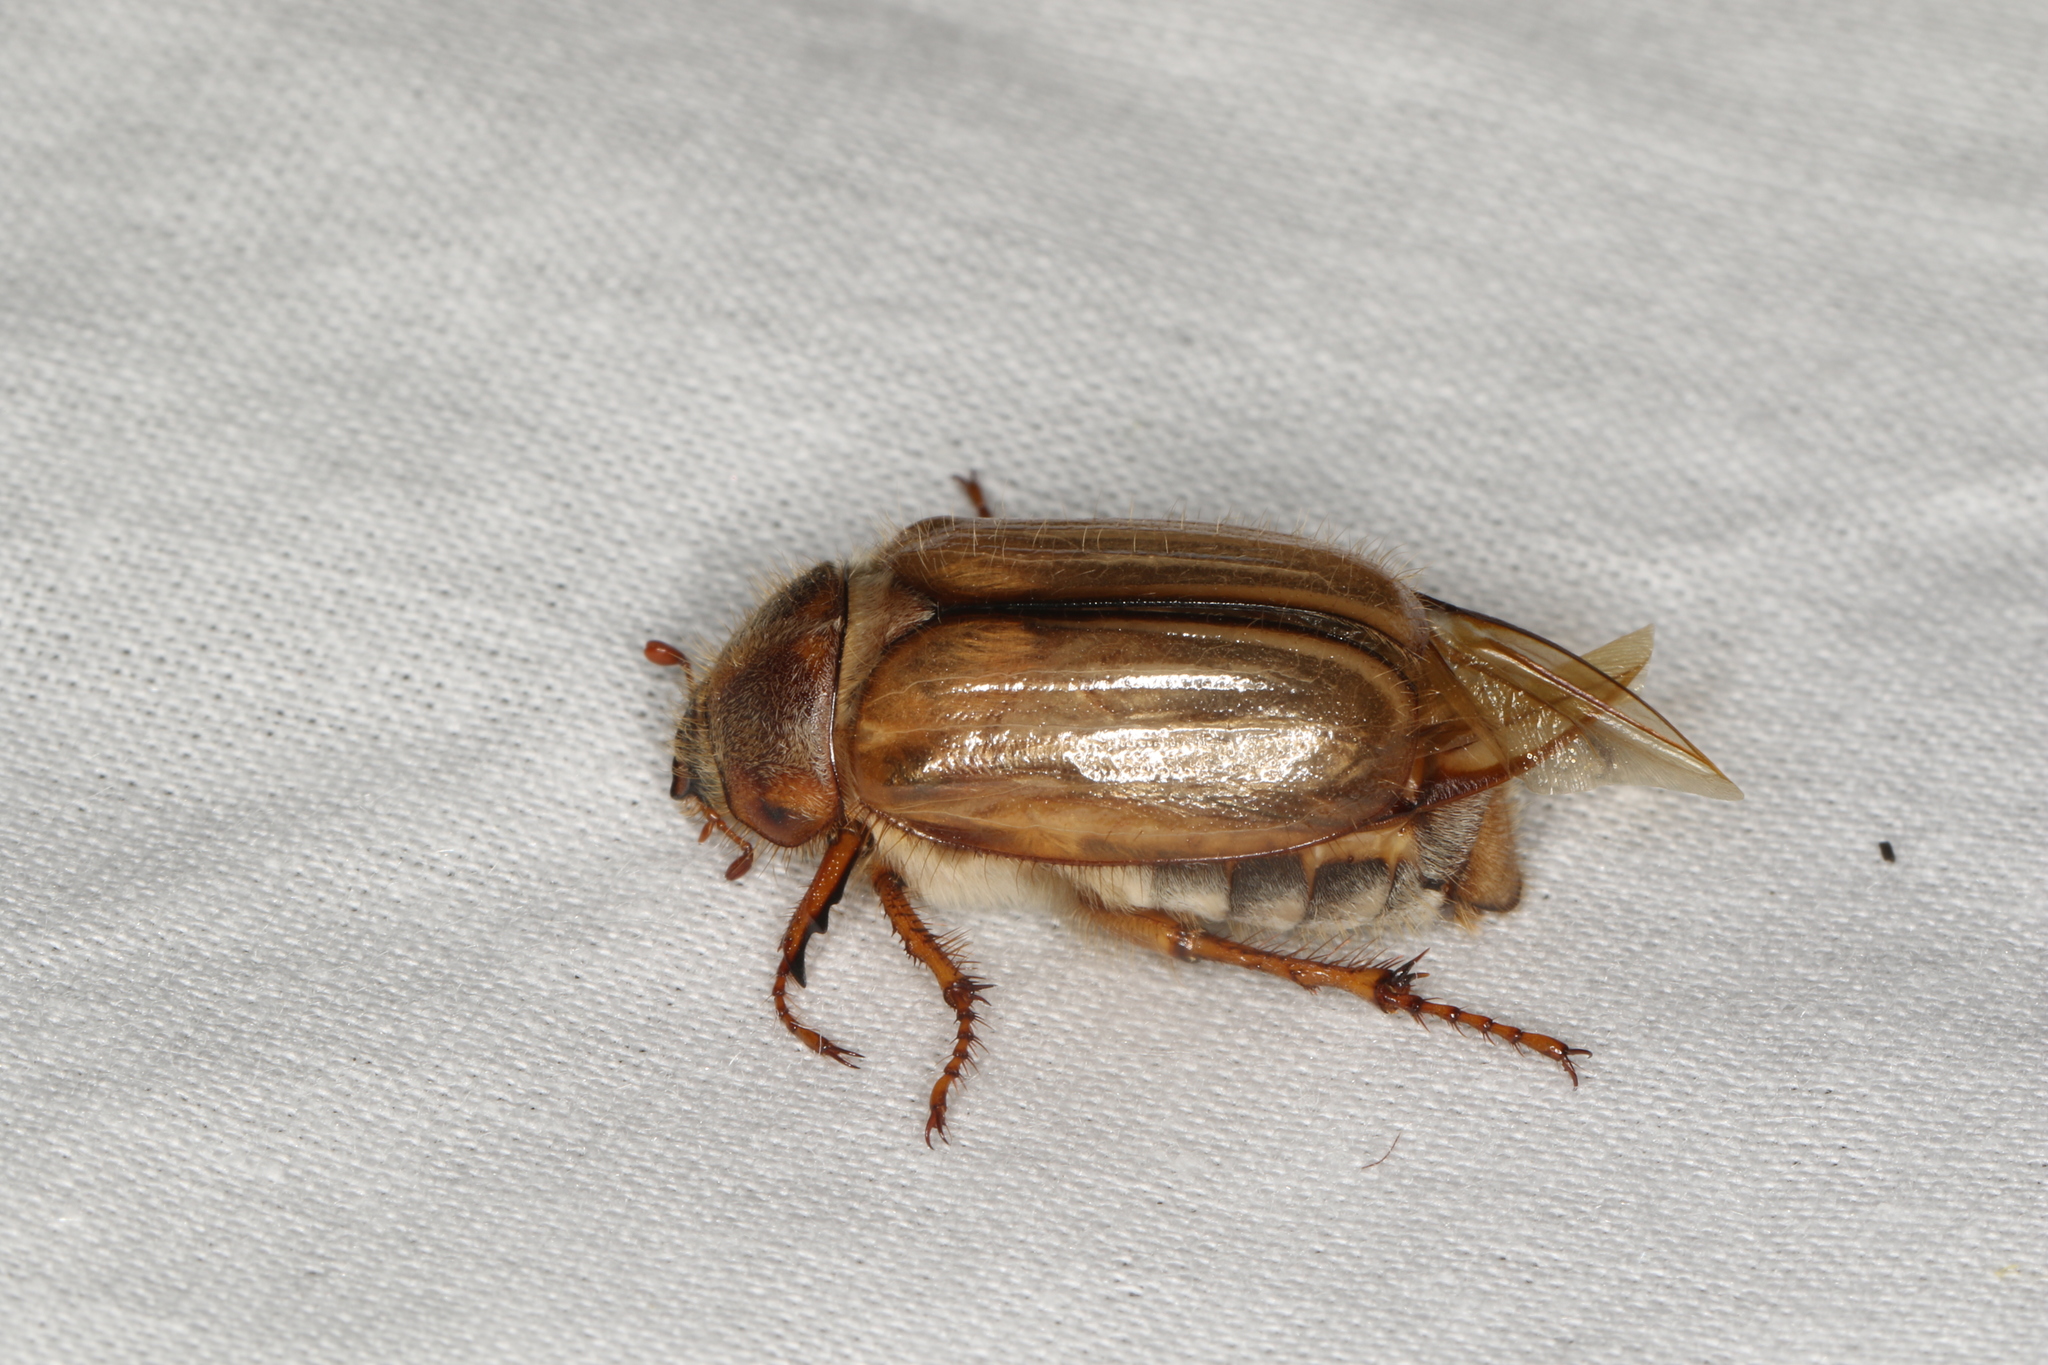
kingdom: Animalia
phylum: Arthropoda
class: Insecta
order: Coleoptera
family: Scarabaeidae
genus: Amphimallon
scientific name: Amphimallon solstitiale
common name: Summer chafer
